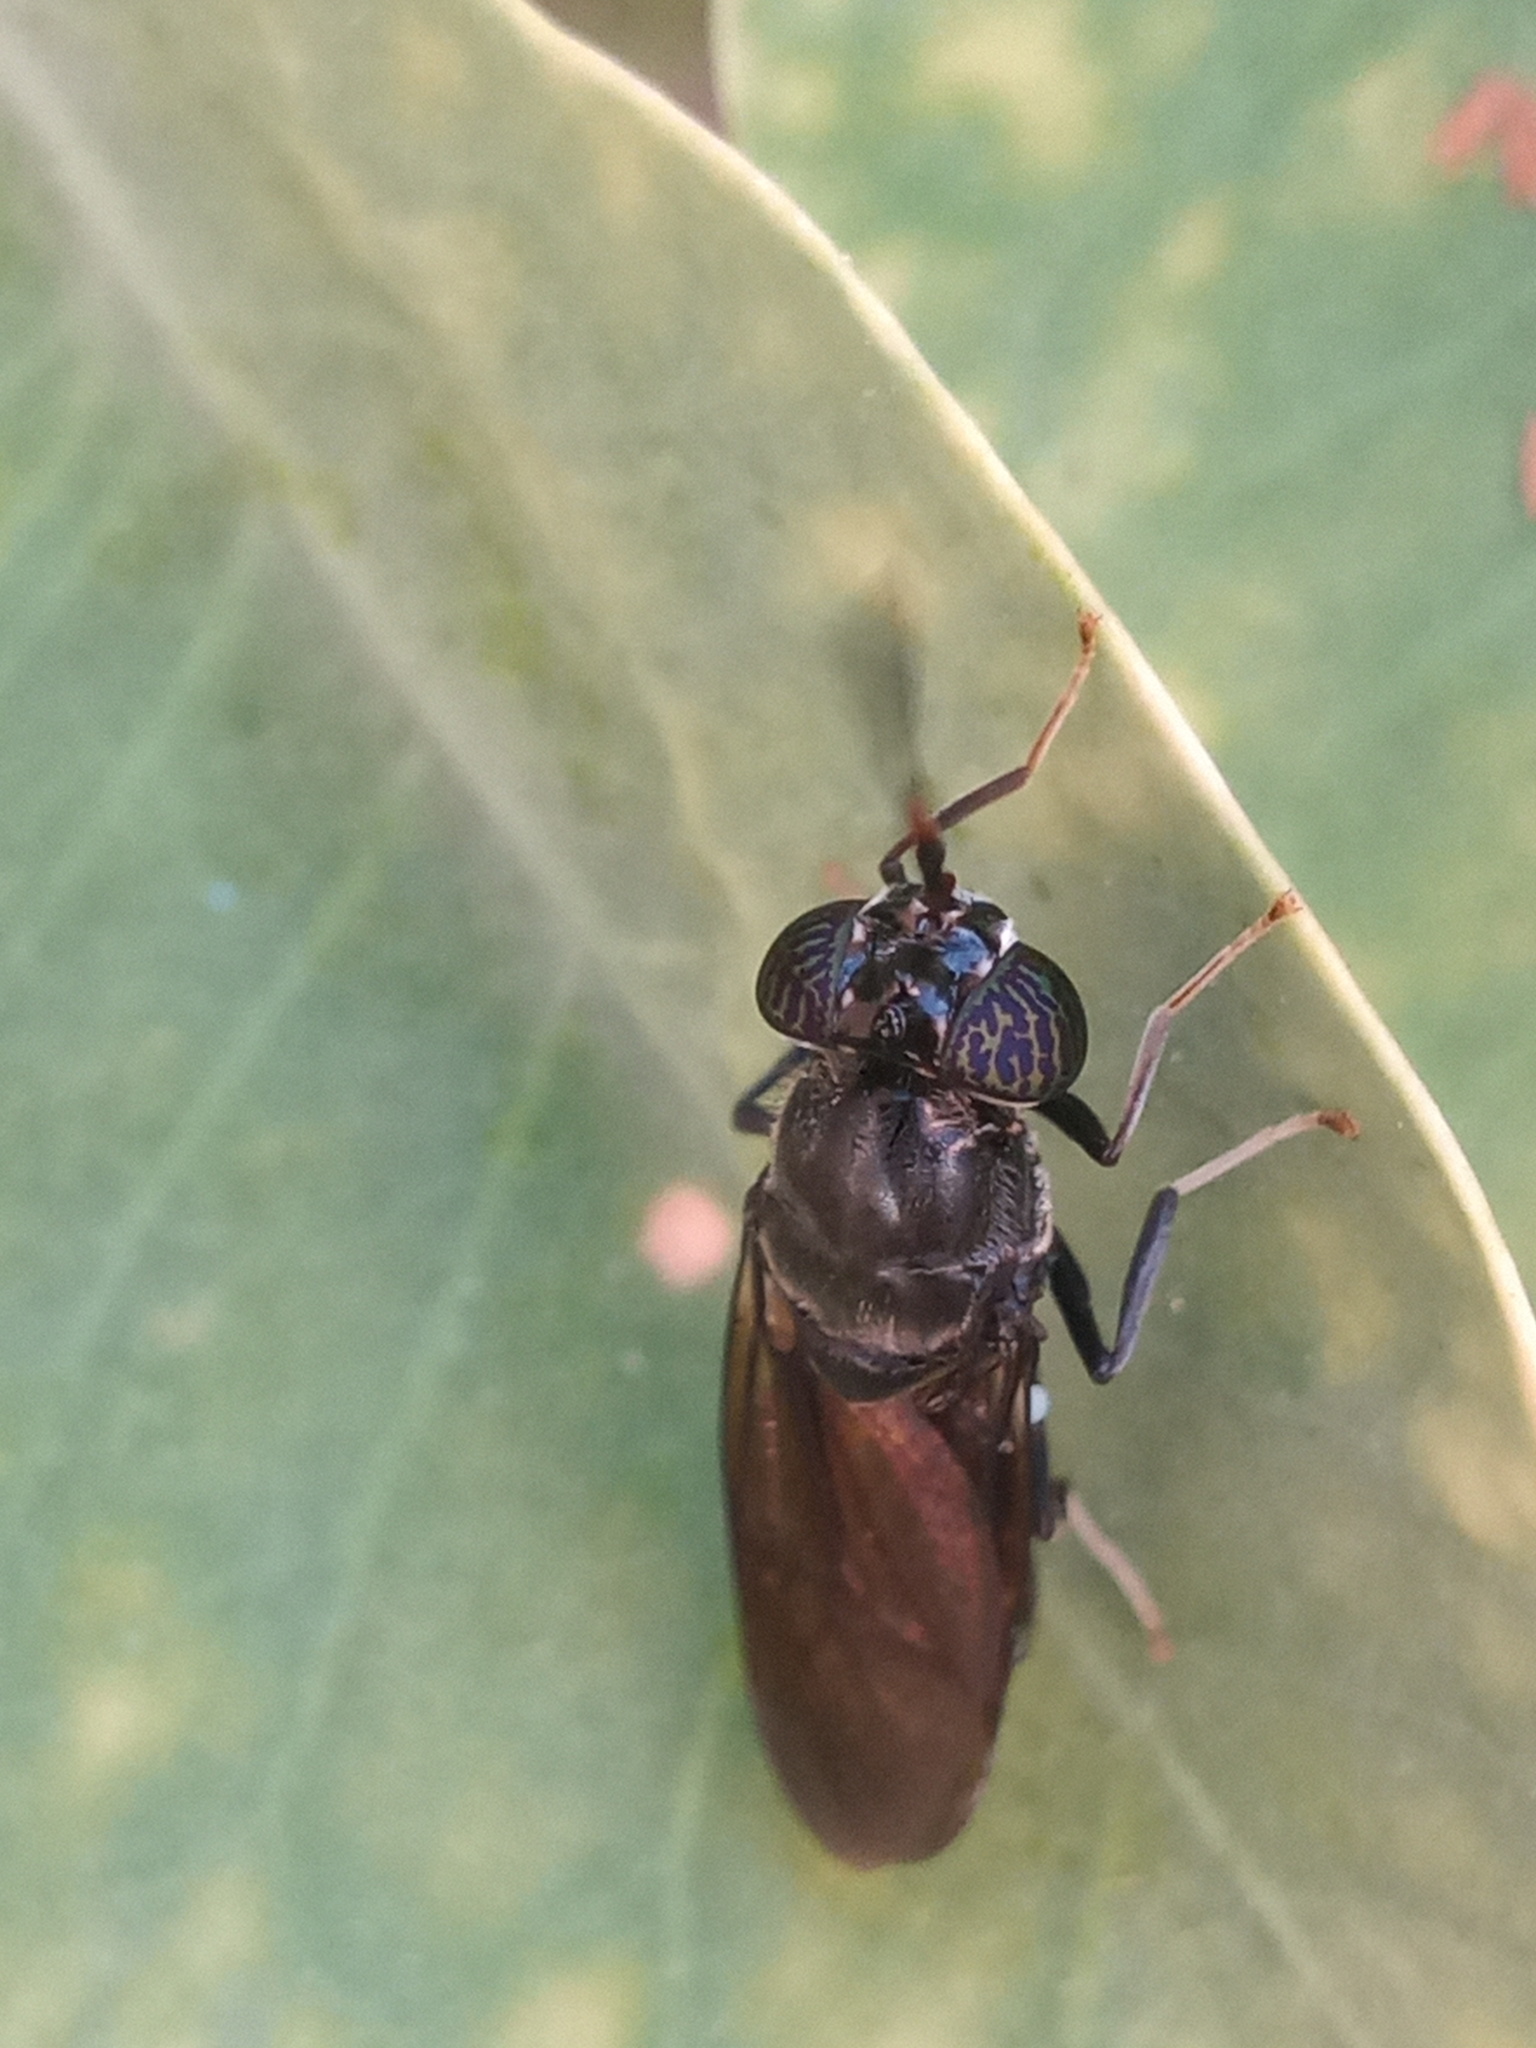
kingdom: Animalia
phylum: Arthropoda
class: Insecta
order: Diptera
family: Stratiomyidae
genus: Hermetia
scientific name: Hermetia illucens
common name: Black soldier fly
